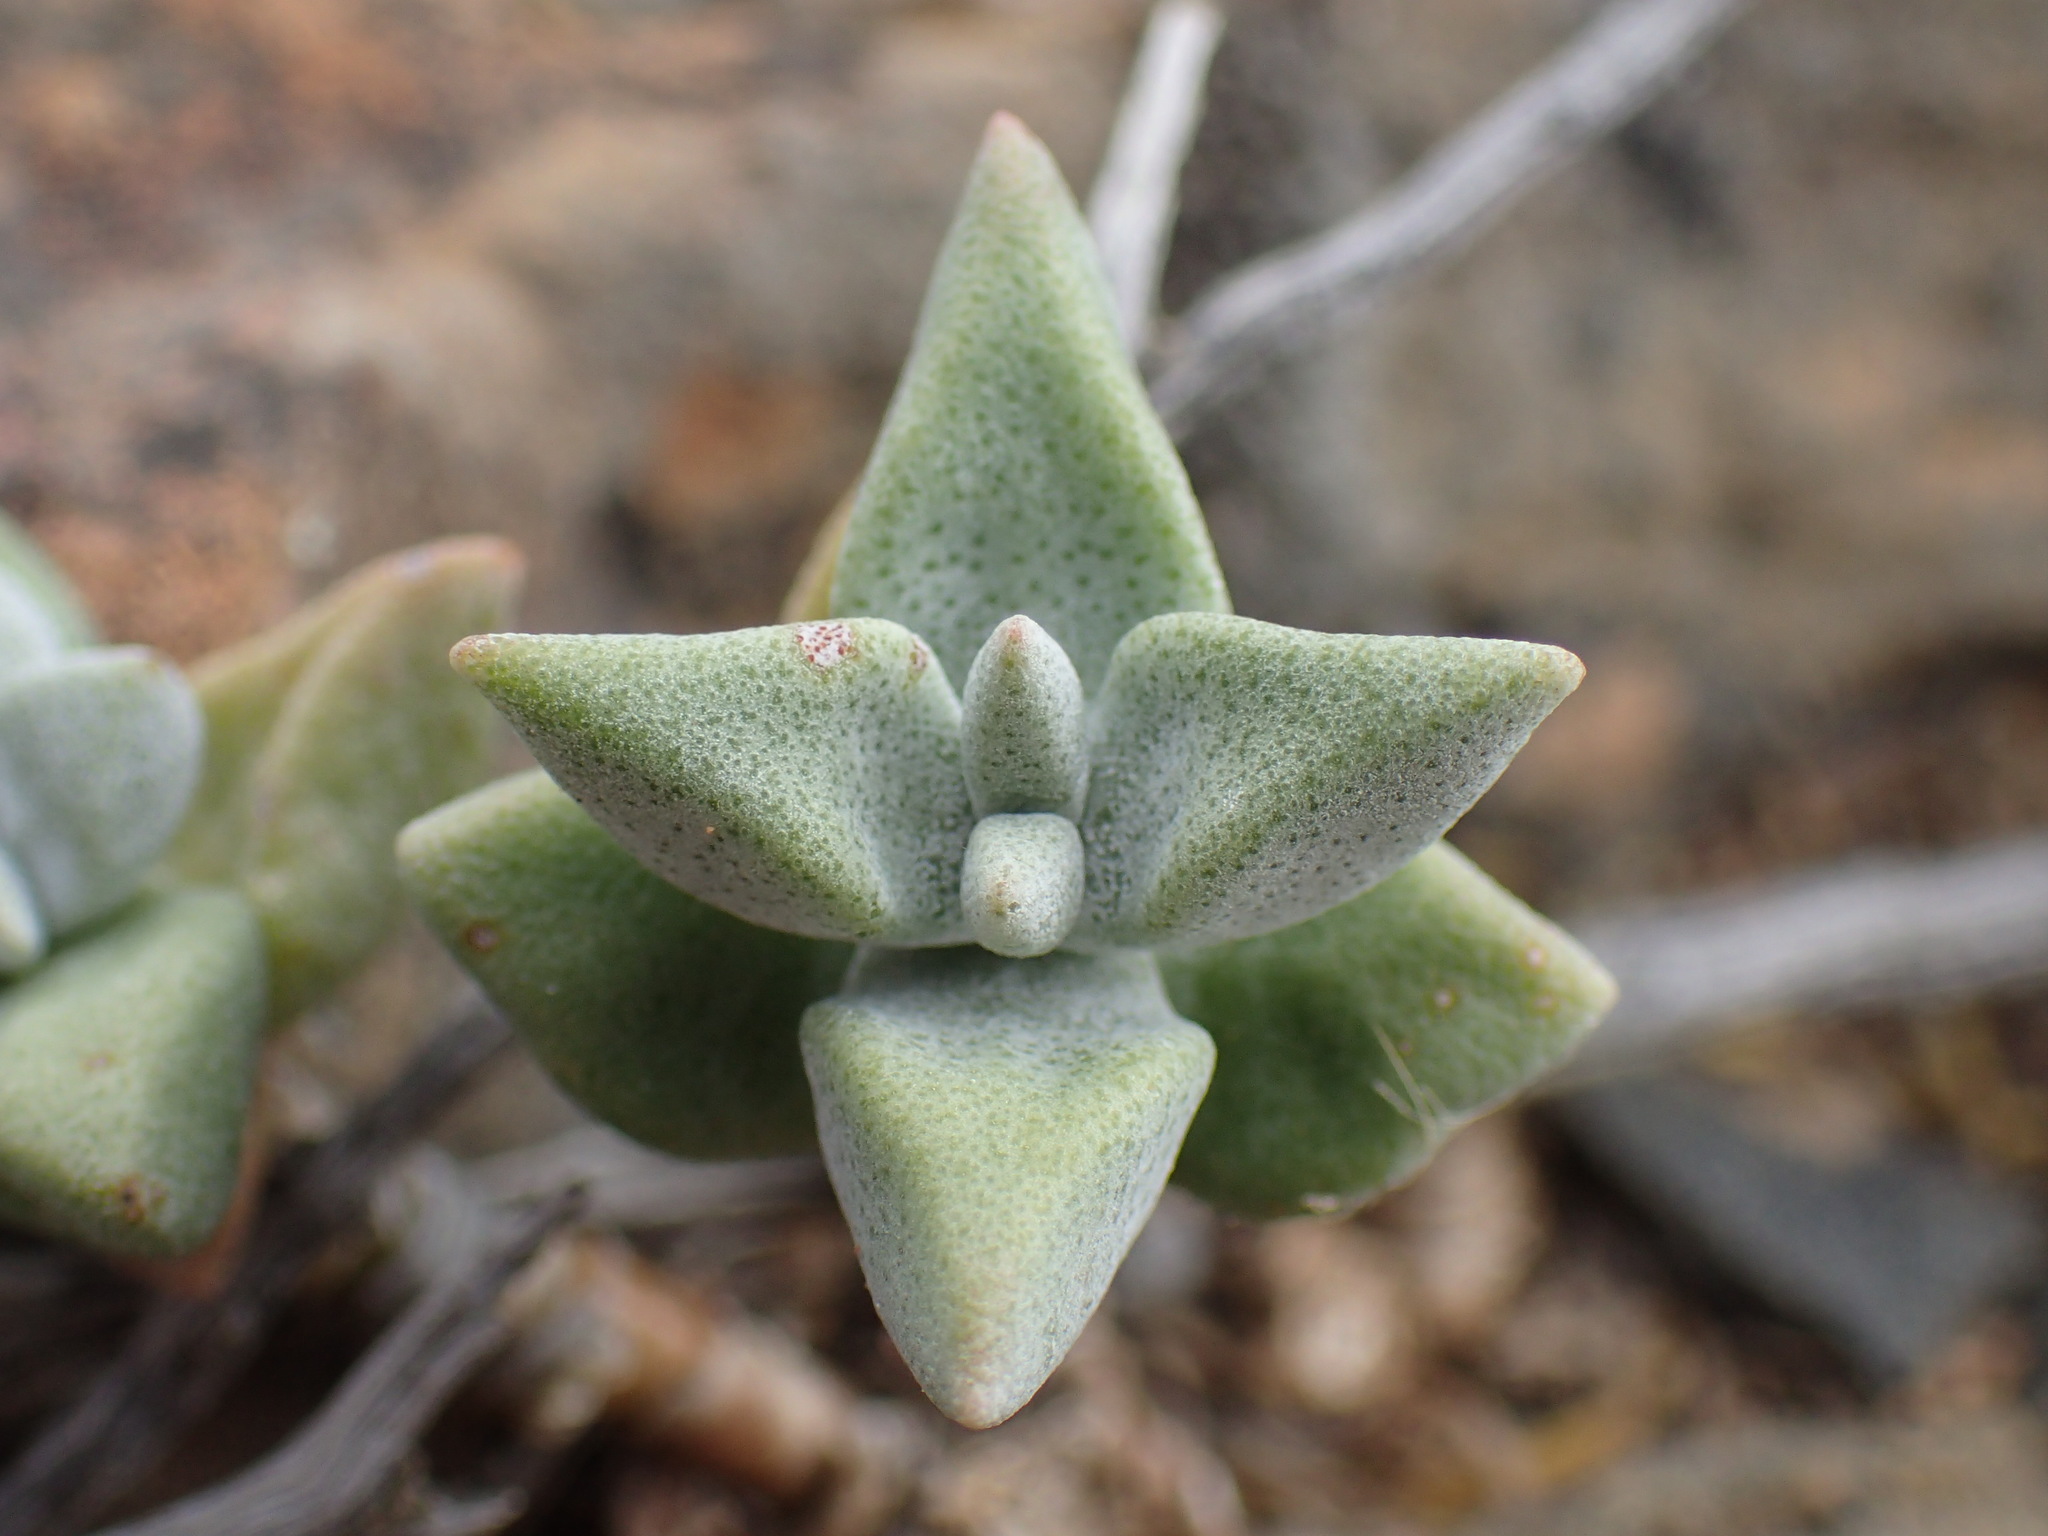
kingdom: Plantae
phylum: Tracheophyta
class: Magnoliopsida
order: Saxifragales
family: Crassulaceae
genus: Crassula
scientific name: Crassula deltoidea
